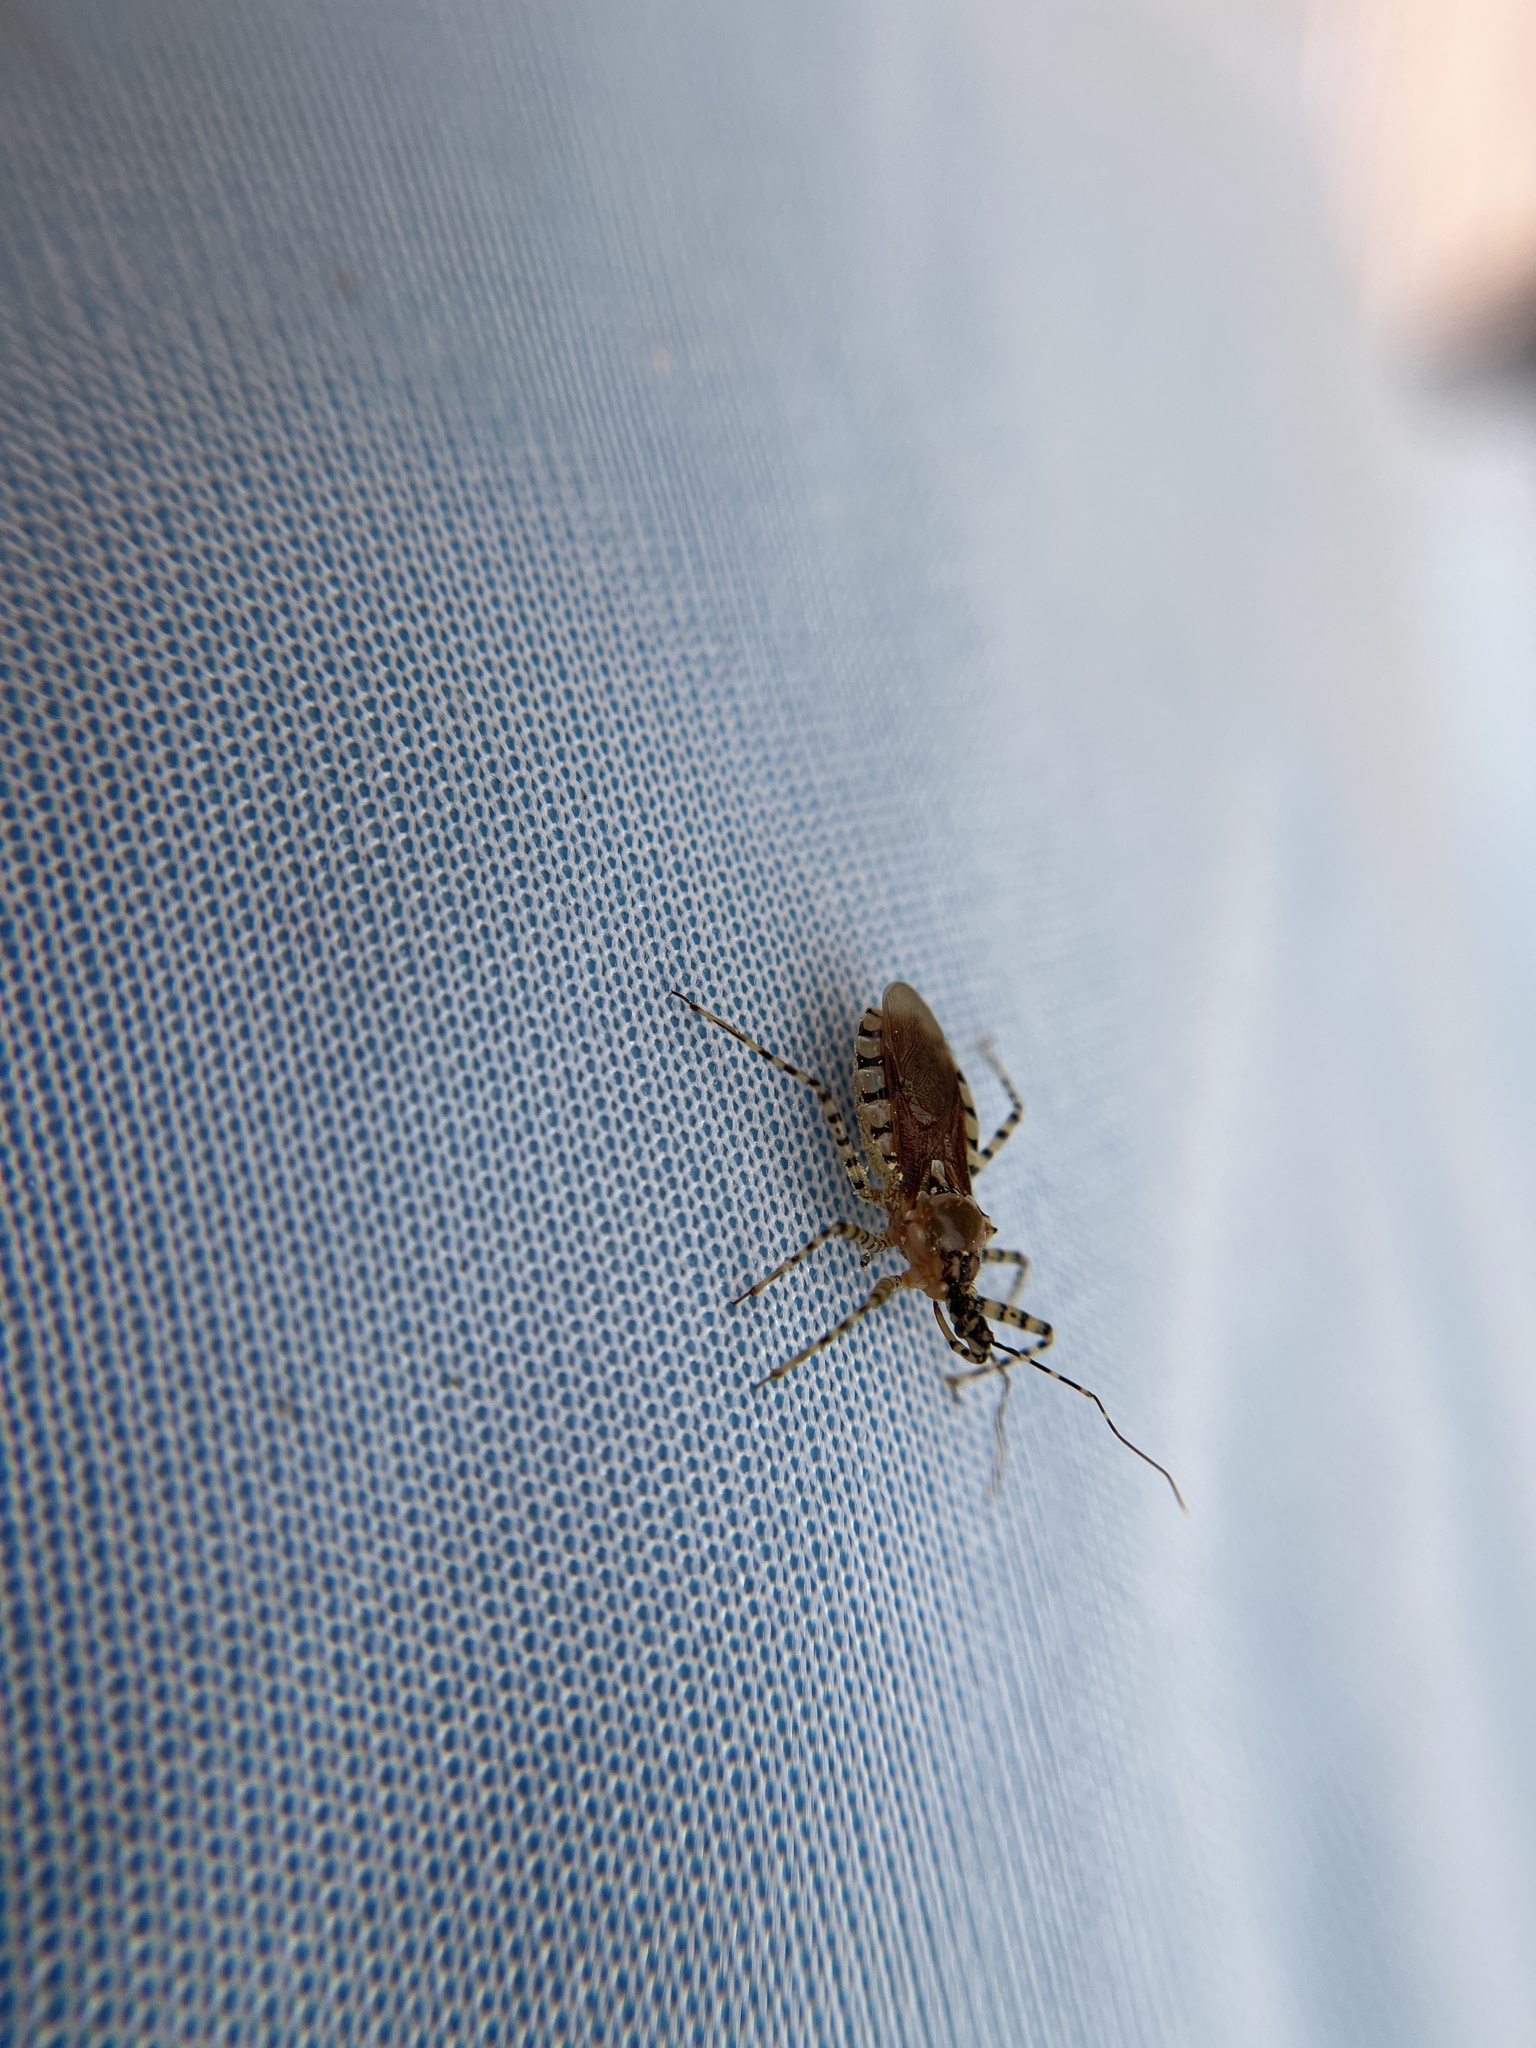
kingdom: Animalia
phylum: Arthropoda
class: Insecta
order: Hemiptera
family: Reduviidae
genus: Pselliopus
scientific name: Pselliopus cinctus
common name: Ringed assassin bug
